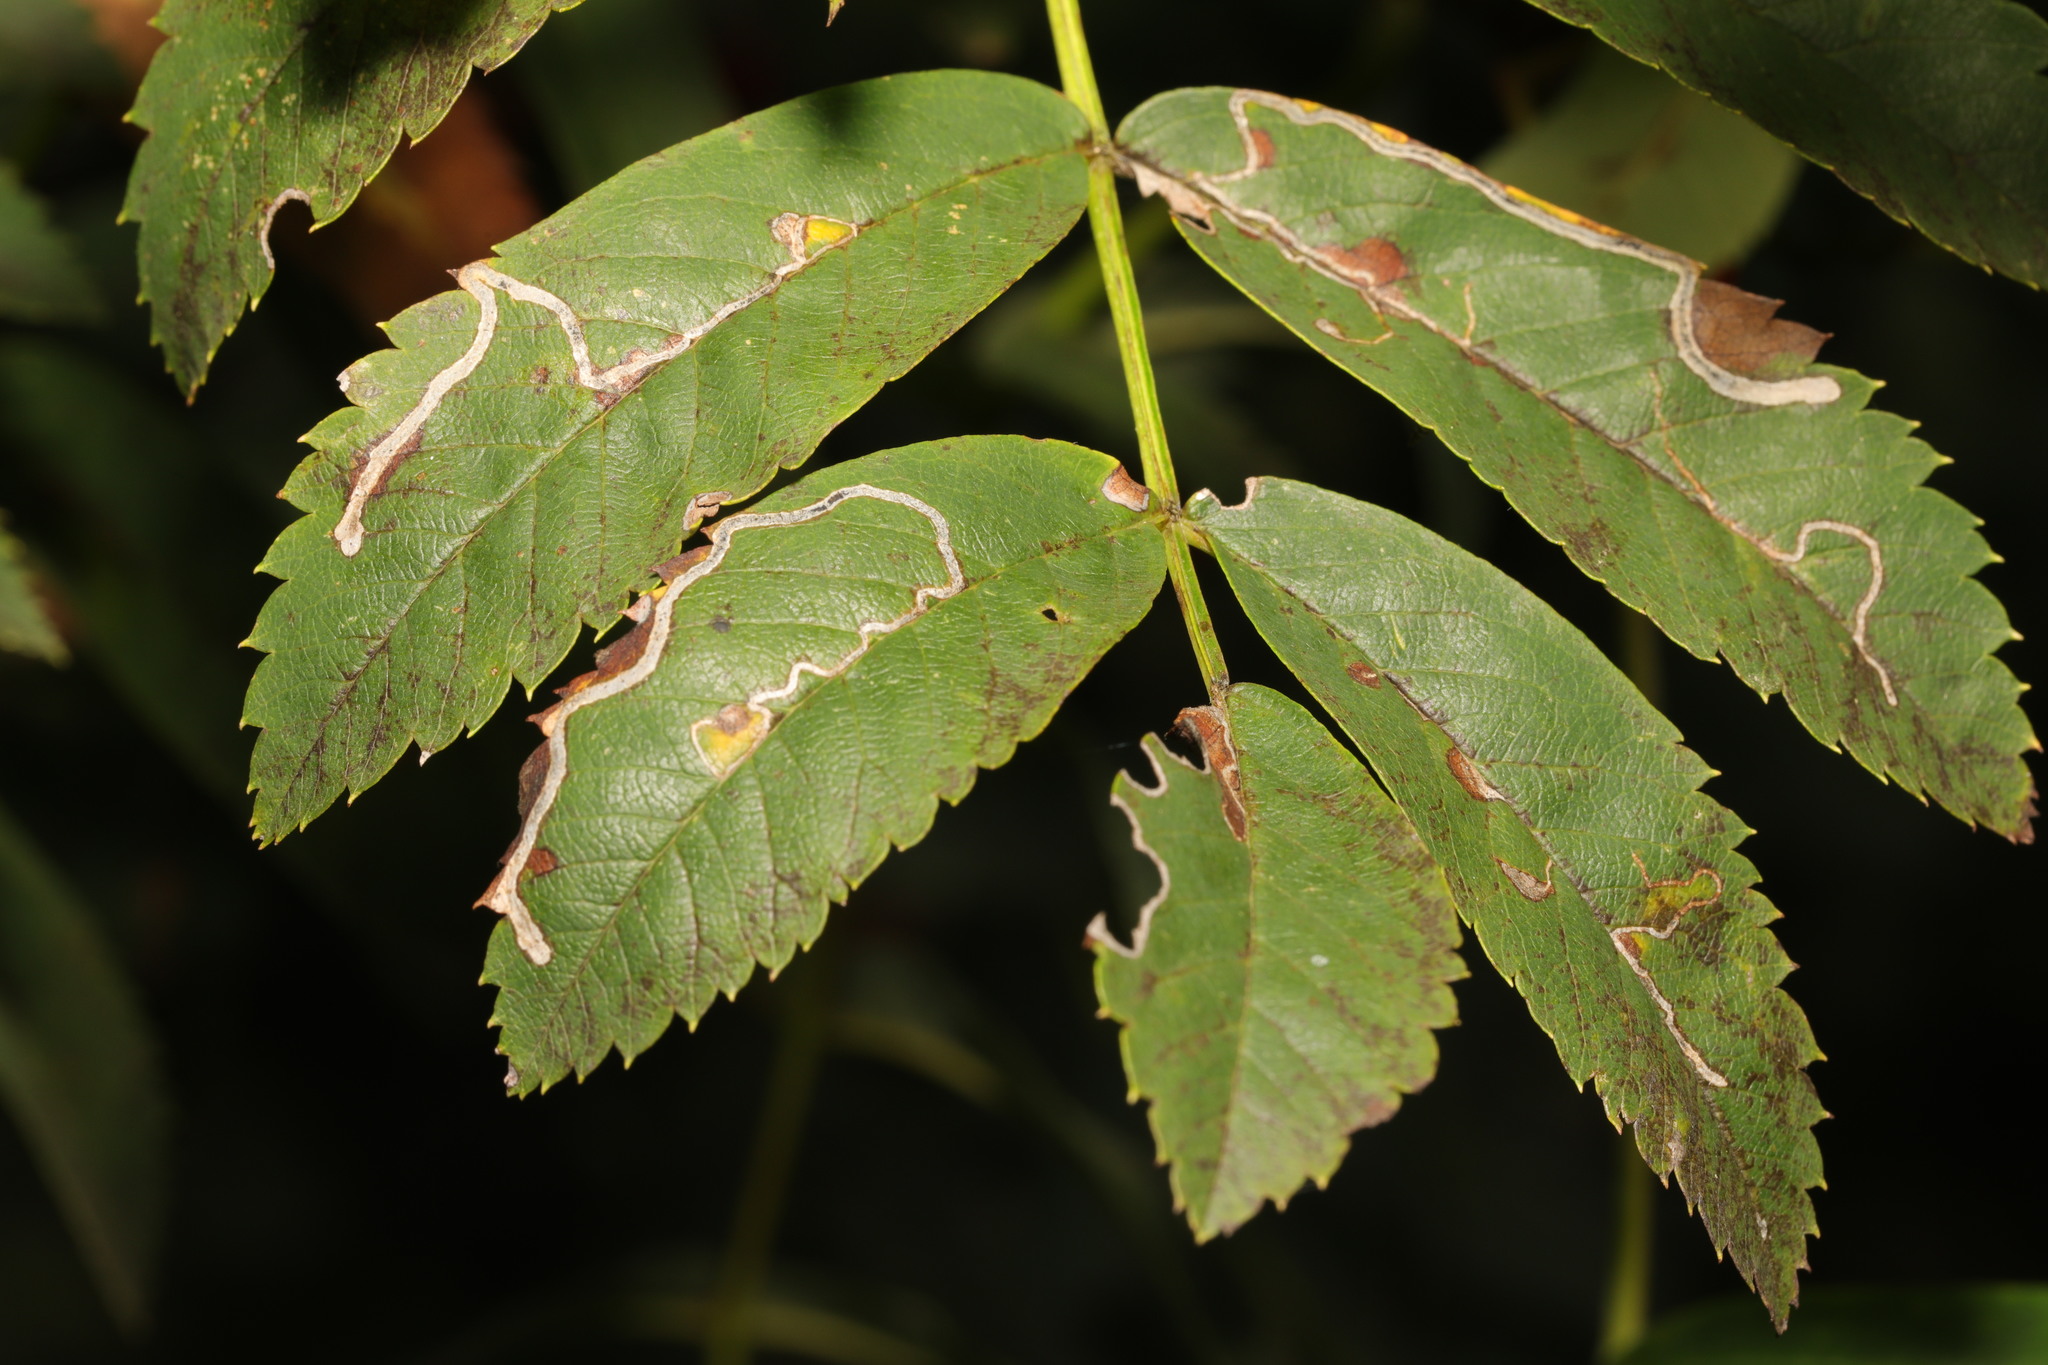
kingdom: Animalia
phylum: Arthropoda
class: Insecta
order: Lepidoptera
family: Lyonetiidae
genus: Lyonetia
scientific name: Lyonetia clerkella
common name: Apple leaf miner
